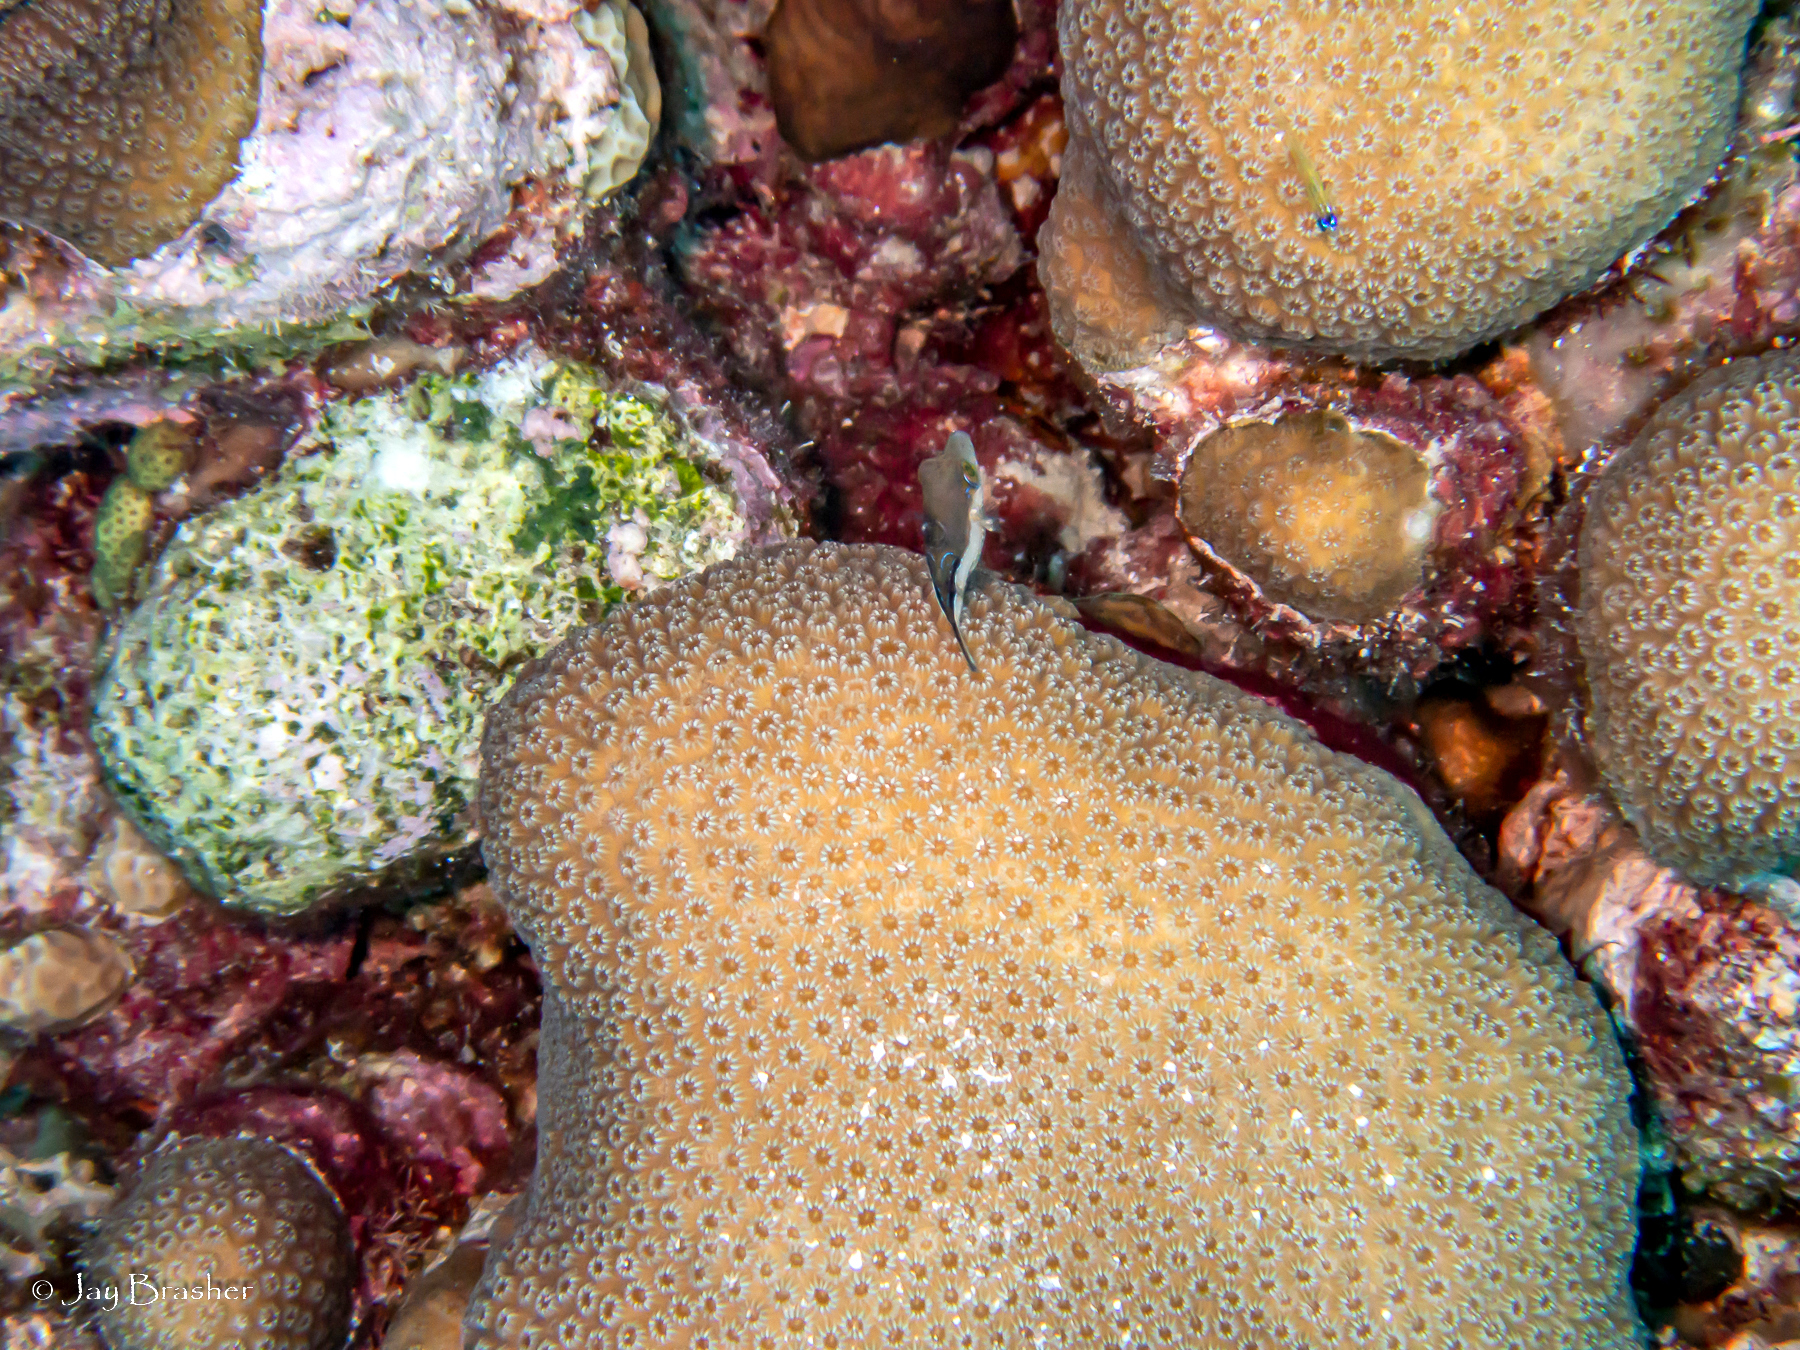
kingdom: Animalia
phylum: Chordata
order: Perciformes
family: Gobiidae
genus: Coryphopterus
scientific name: Coryphopterus lipernes
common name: Peppermint goby
